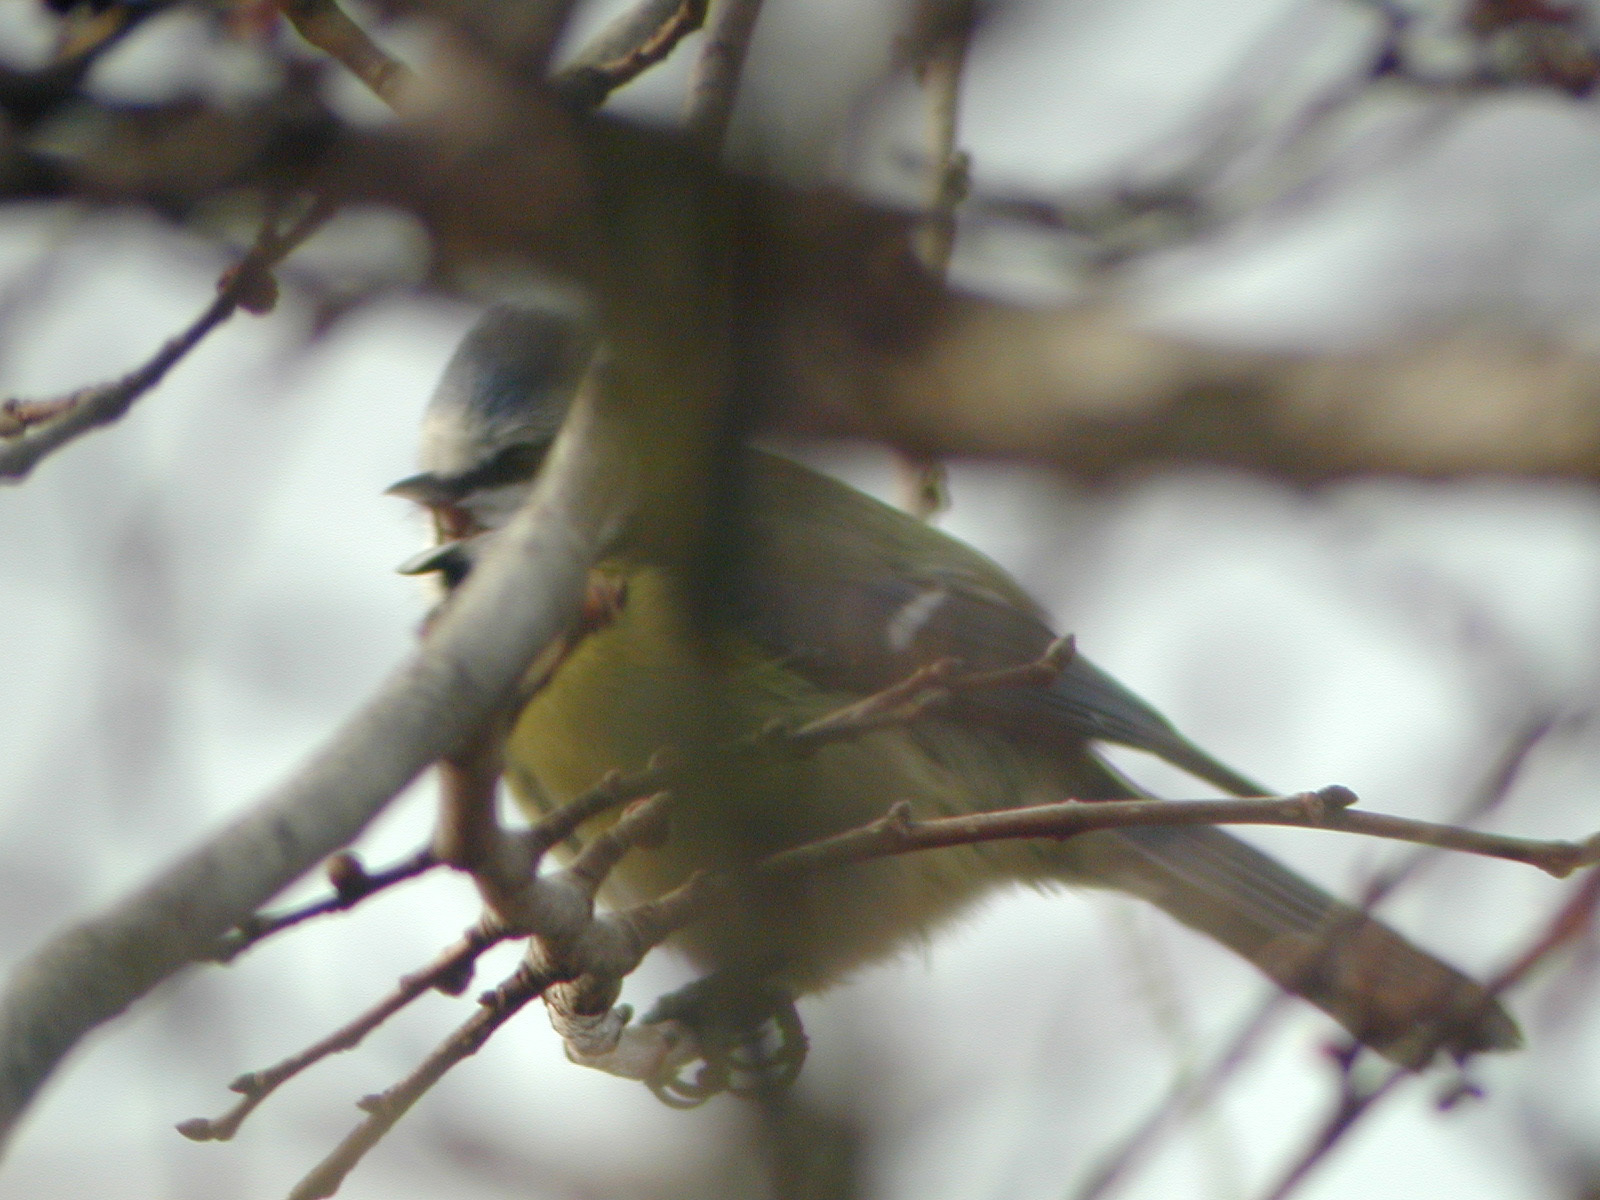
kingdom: Animalia
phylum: Chordata
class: Aves
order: Passeriformes
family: Paridae
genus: Cyanistes
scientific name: Cyanistes caeruleus
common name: Eurasian blue tit
